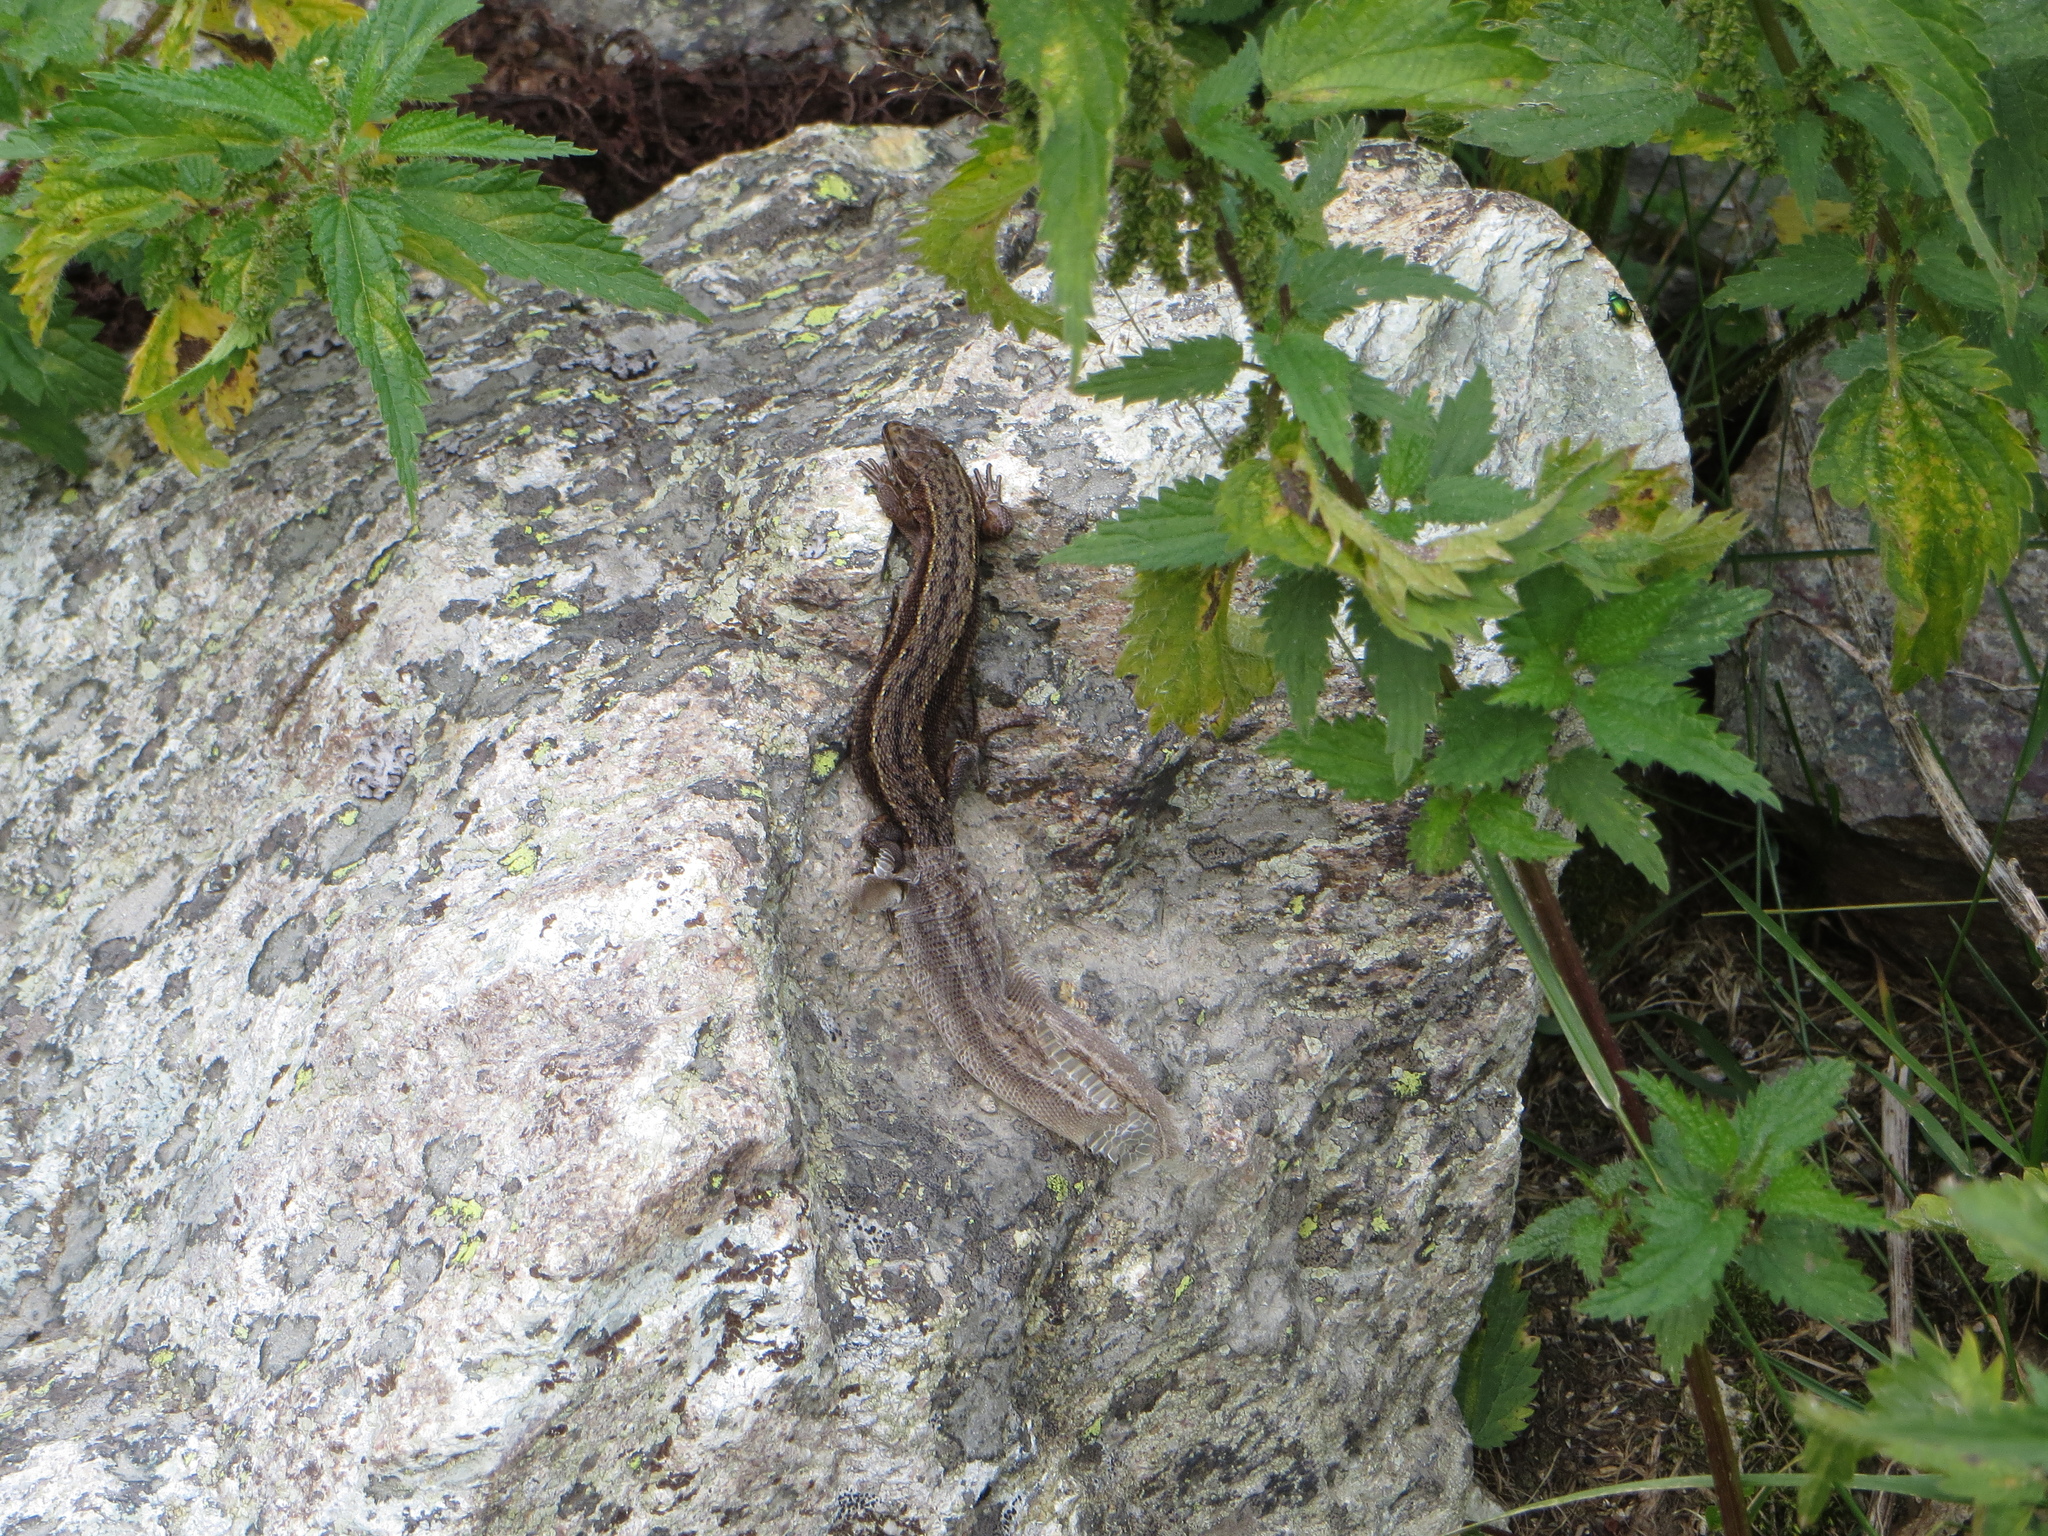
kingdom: Animalia
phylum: Chordata
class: Squamata
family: Lacertidae
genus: Zootoca
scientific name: Zootoca vivipara
